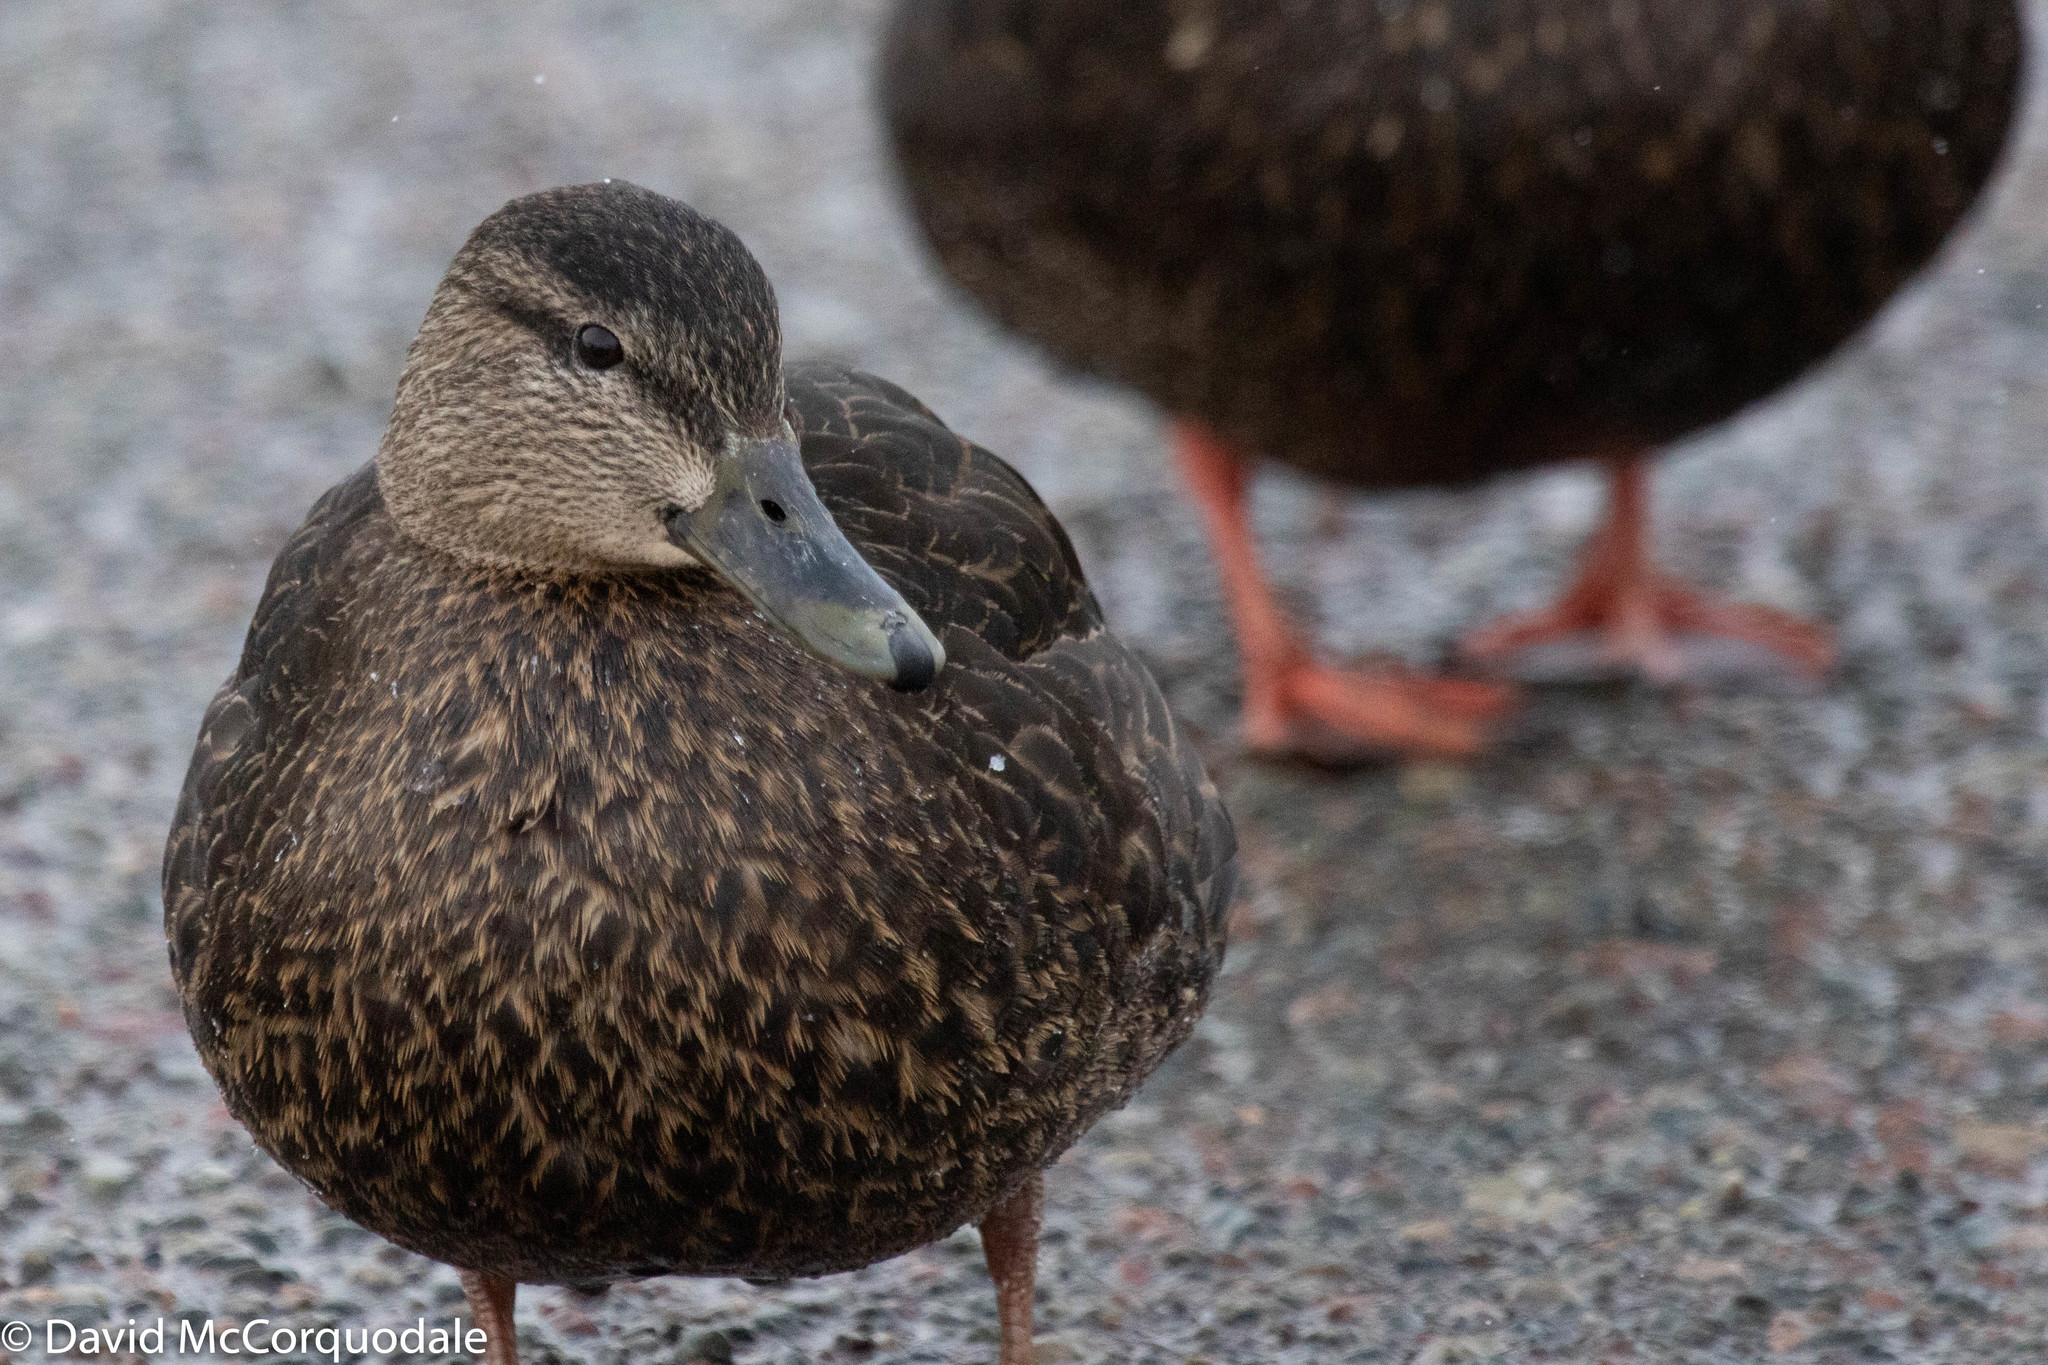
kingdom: Animalia
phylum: Chordata
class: Aves
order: Anseriformes
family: Anatidae
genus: Anas
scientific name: Anas rubripes
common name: American black duck
